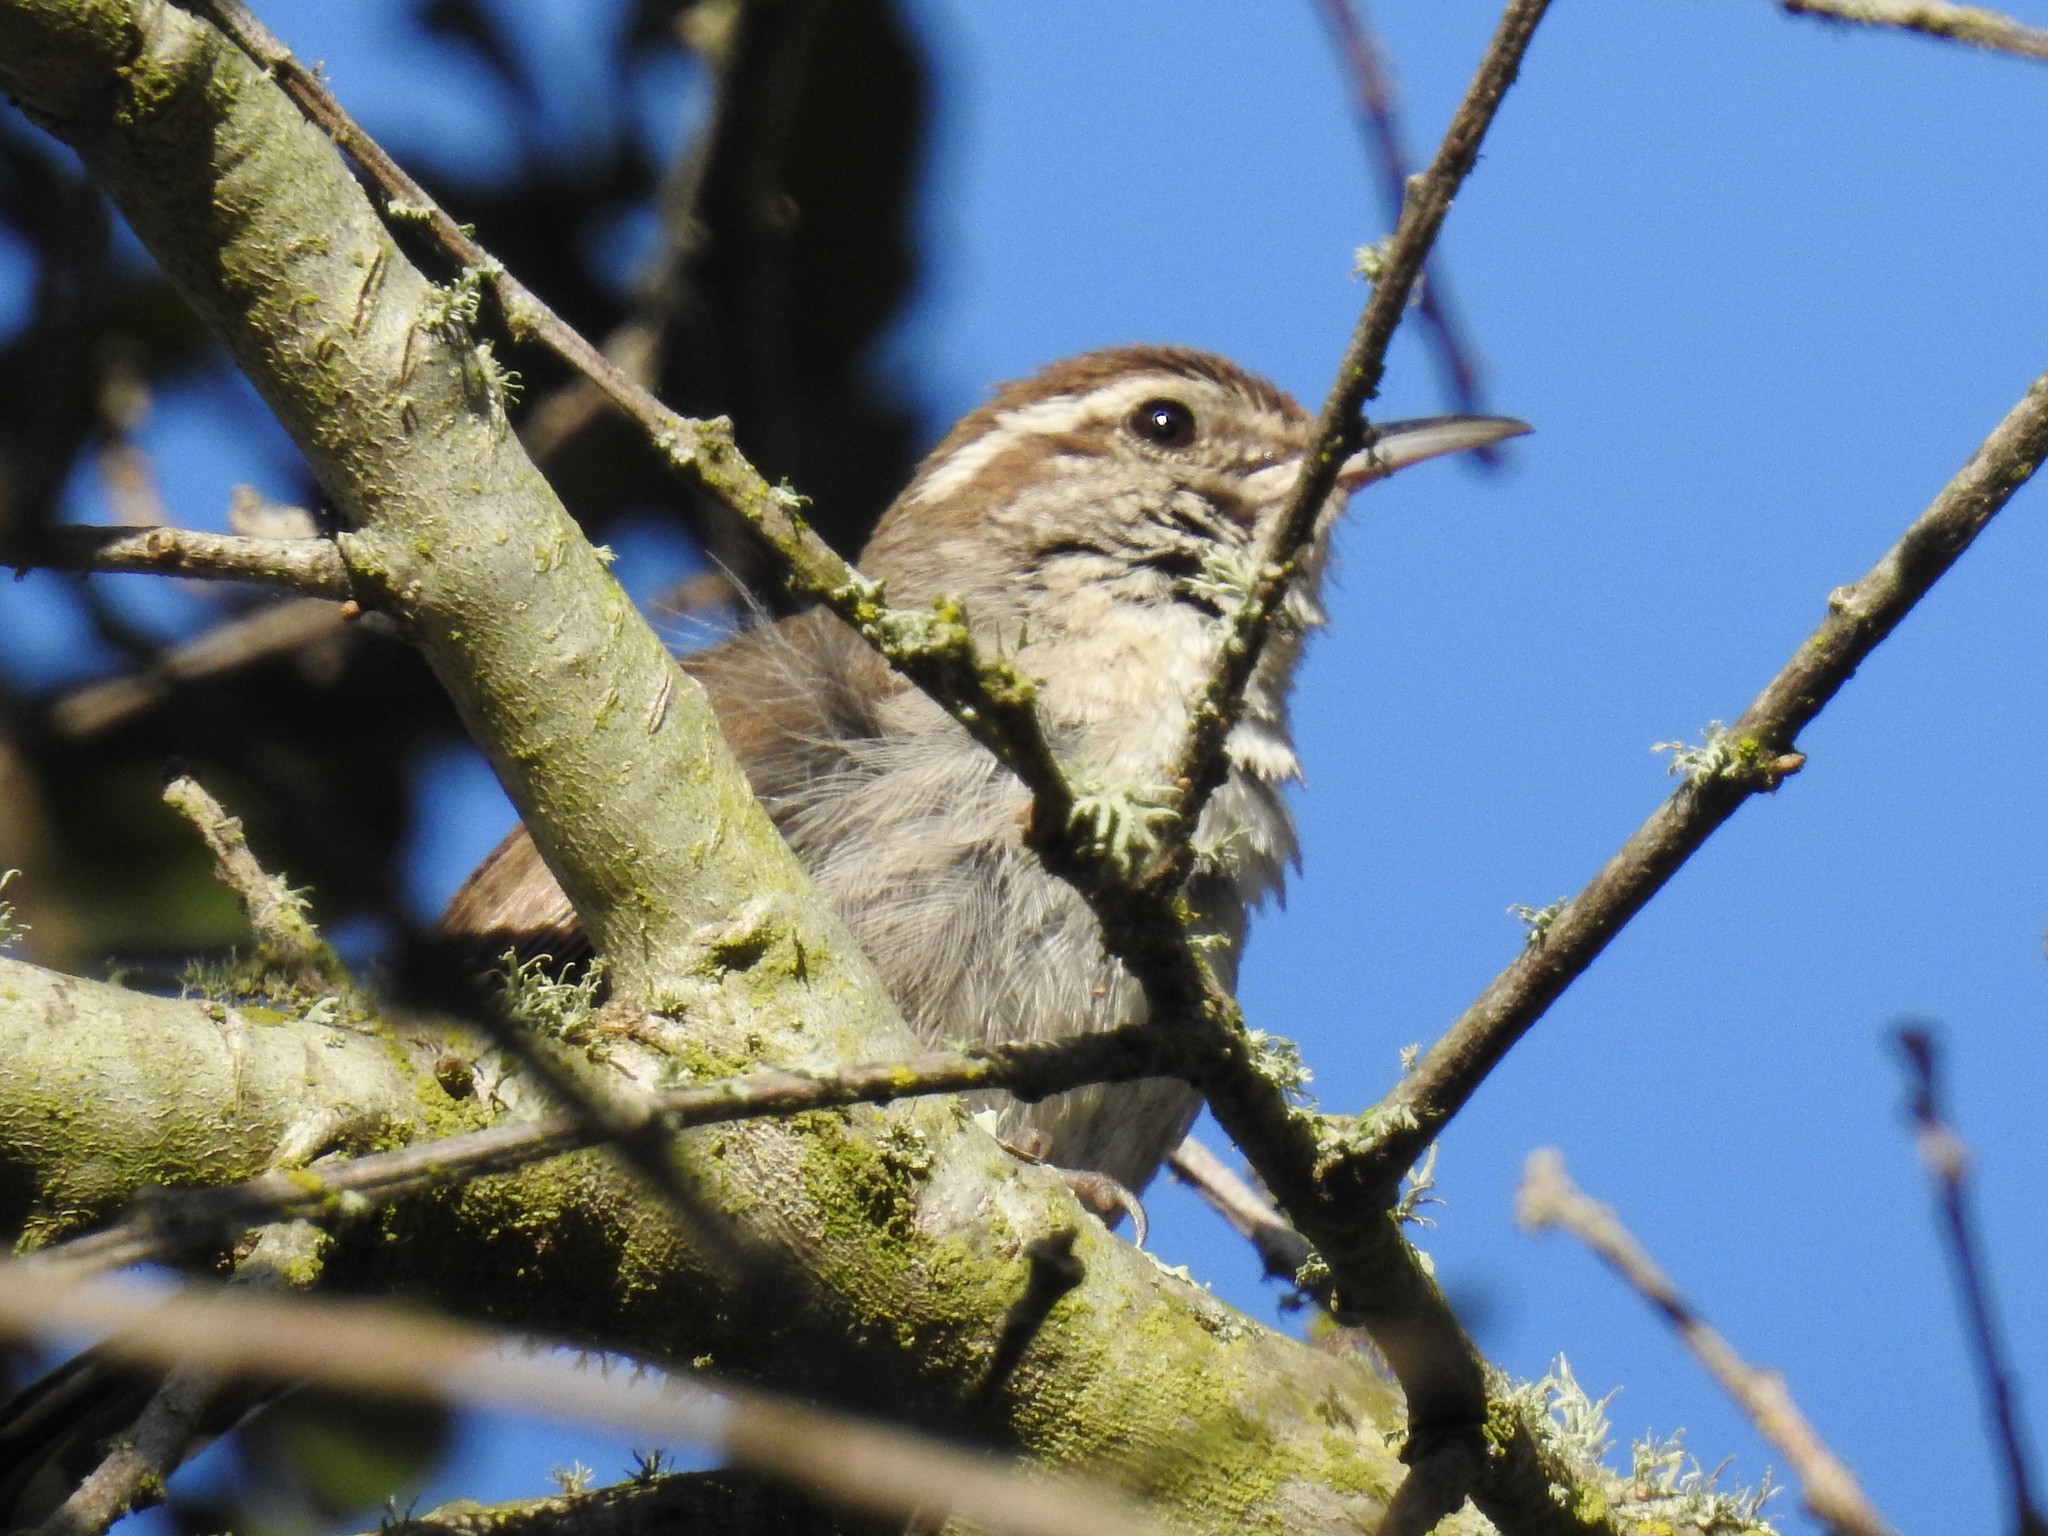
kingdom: Animalia
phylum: Chordata
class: Aves
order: Passeriformes
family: Troglodytidae
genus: Thryomanes
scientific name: Thryomanes bewickii
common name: Bewick's wren
